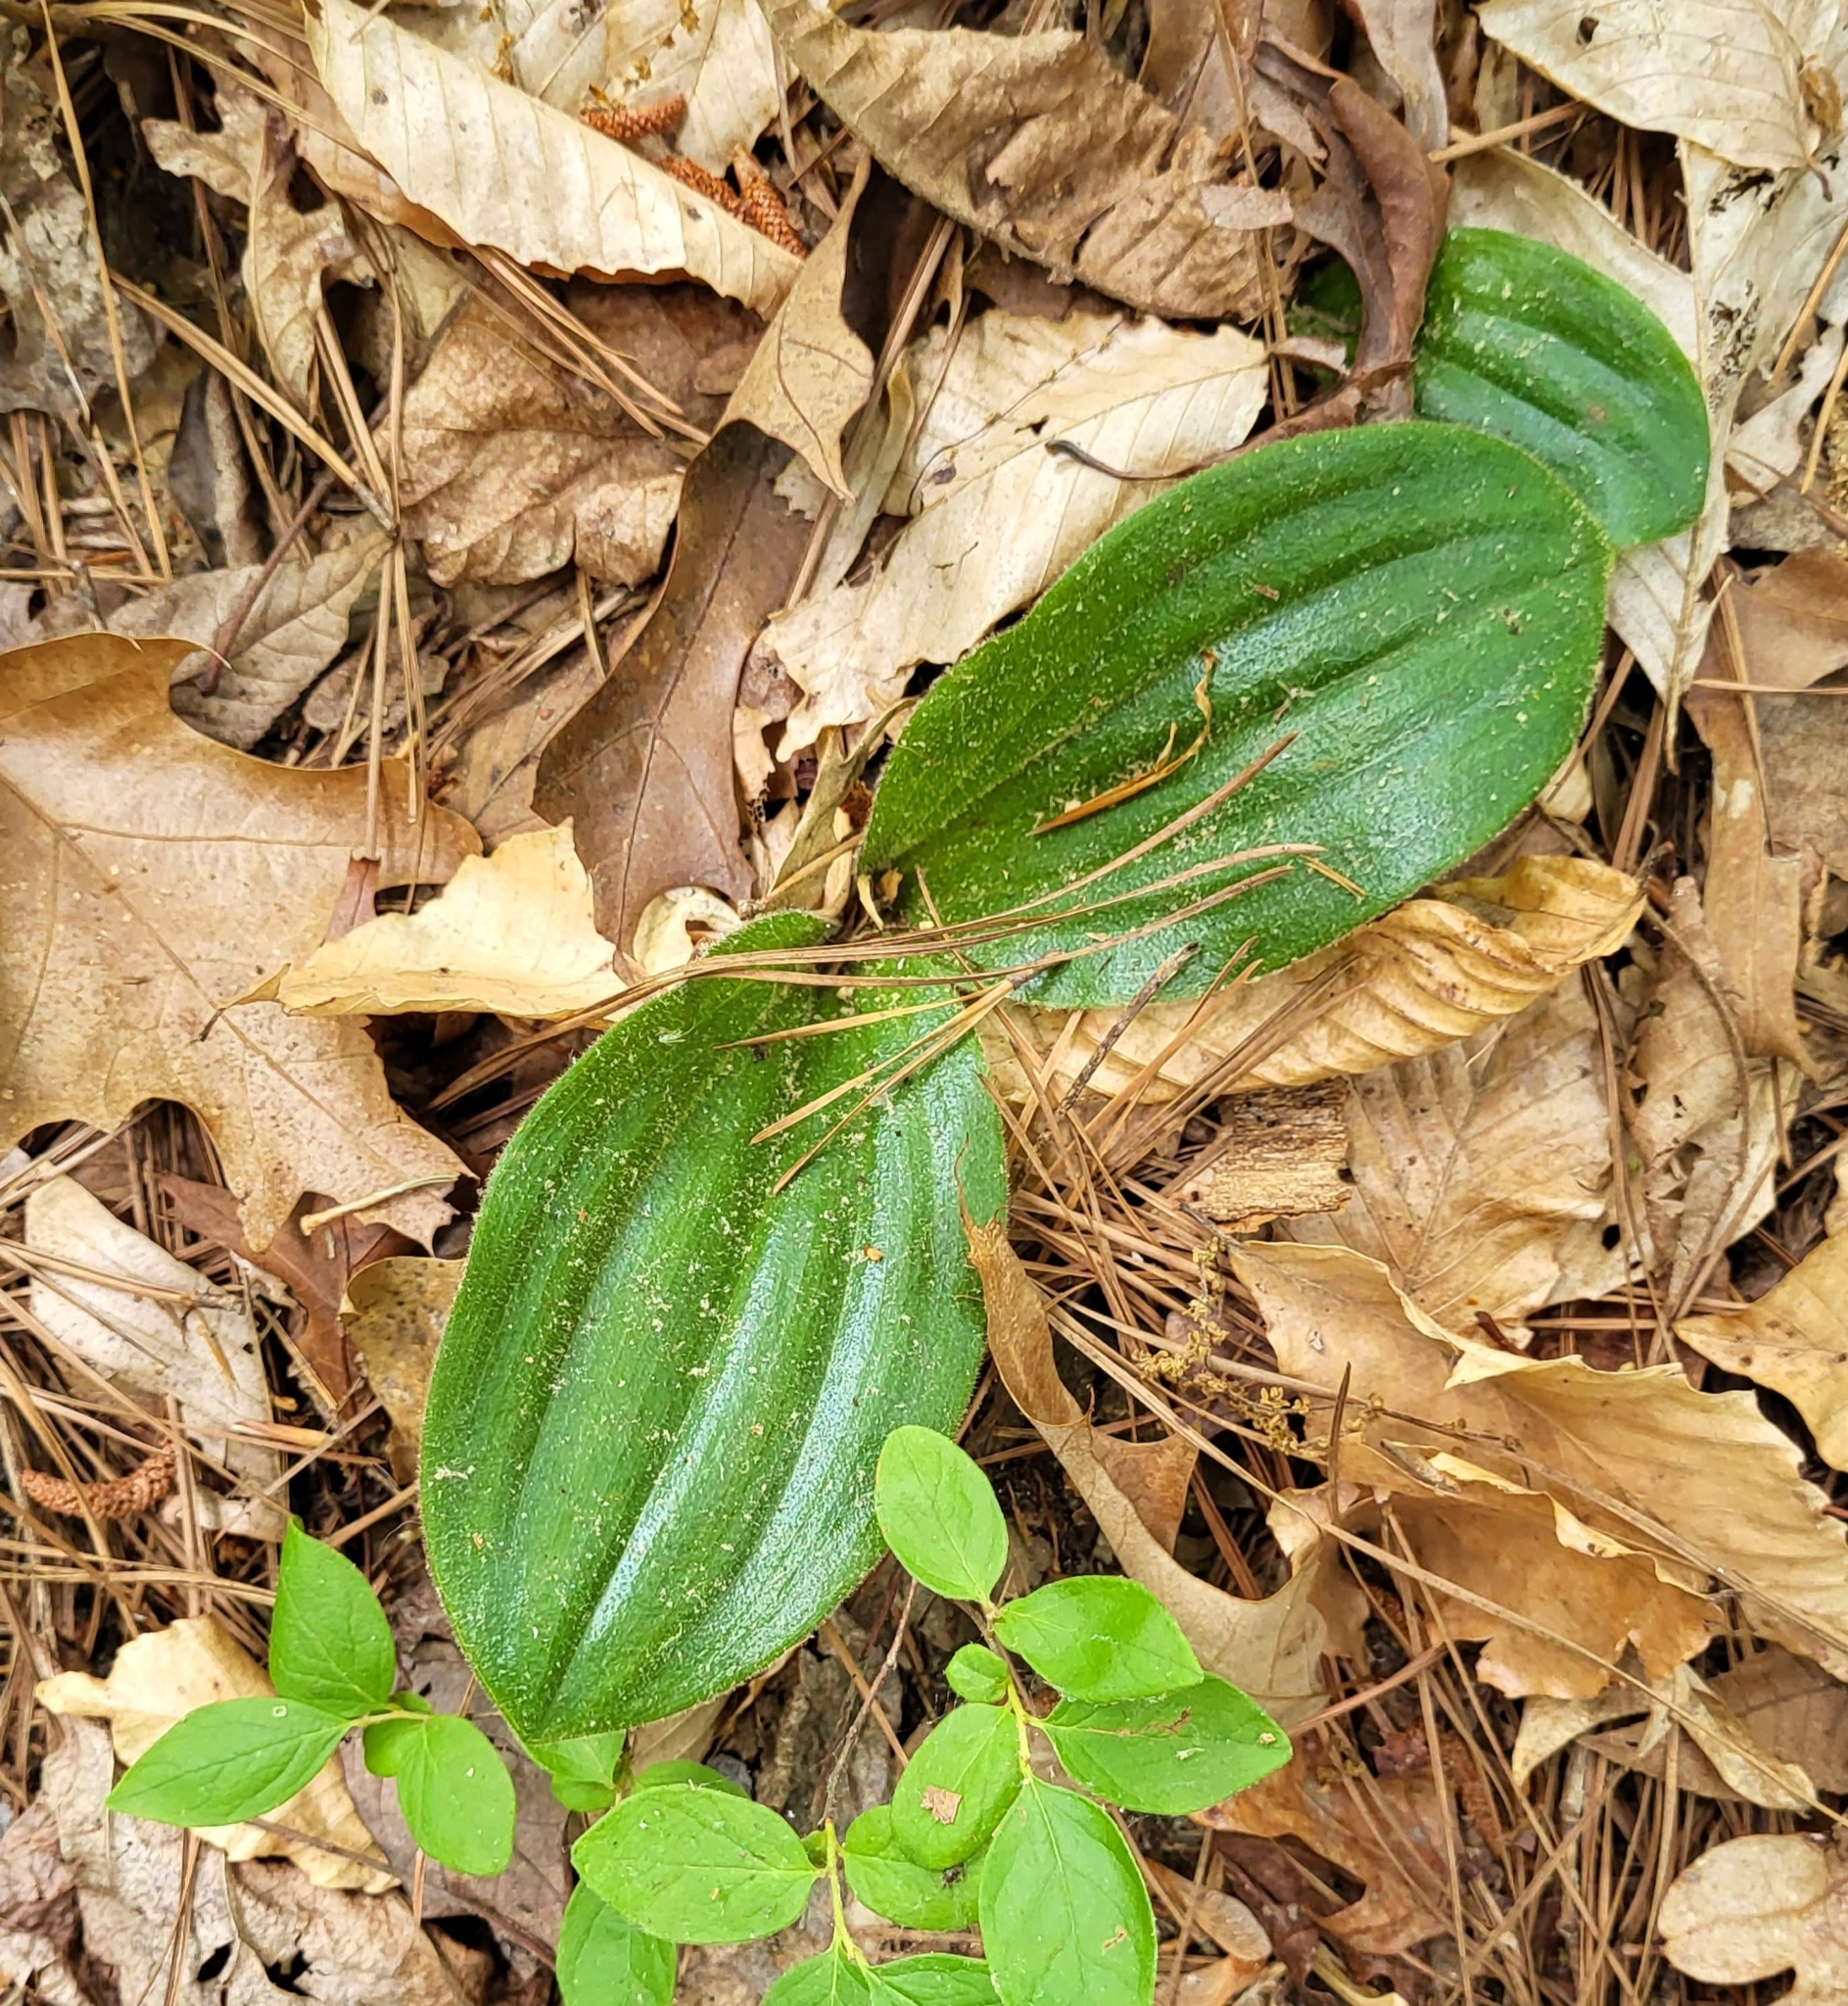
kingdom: Plantae
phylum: Tracheophyta
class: Liliopsida
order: Asparagales
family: Orchidaceae
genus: Cypripedium
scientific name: Cypripedium acaule
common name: Pink lady's-slipper
